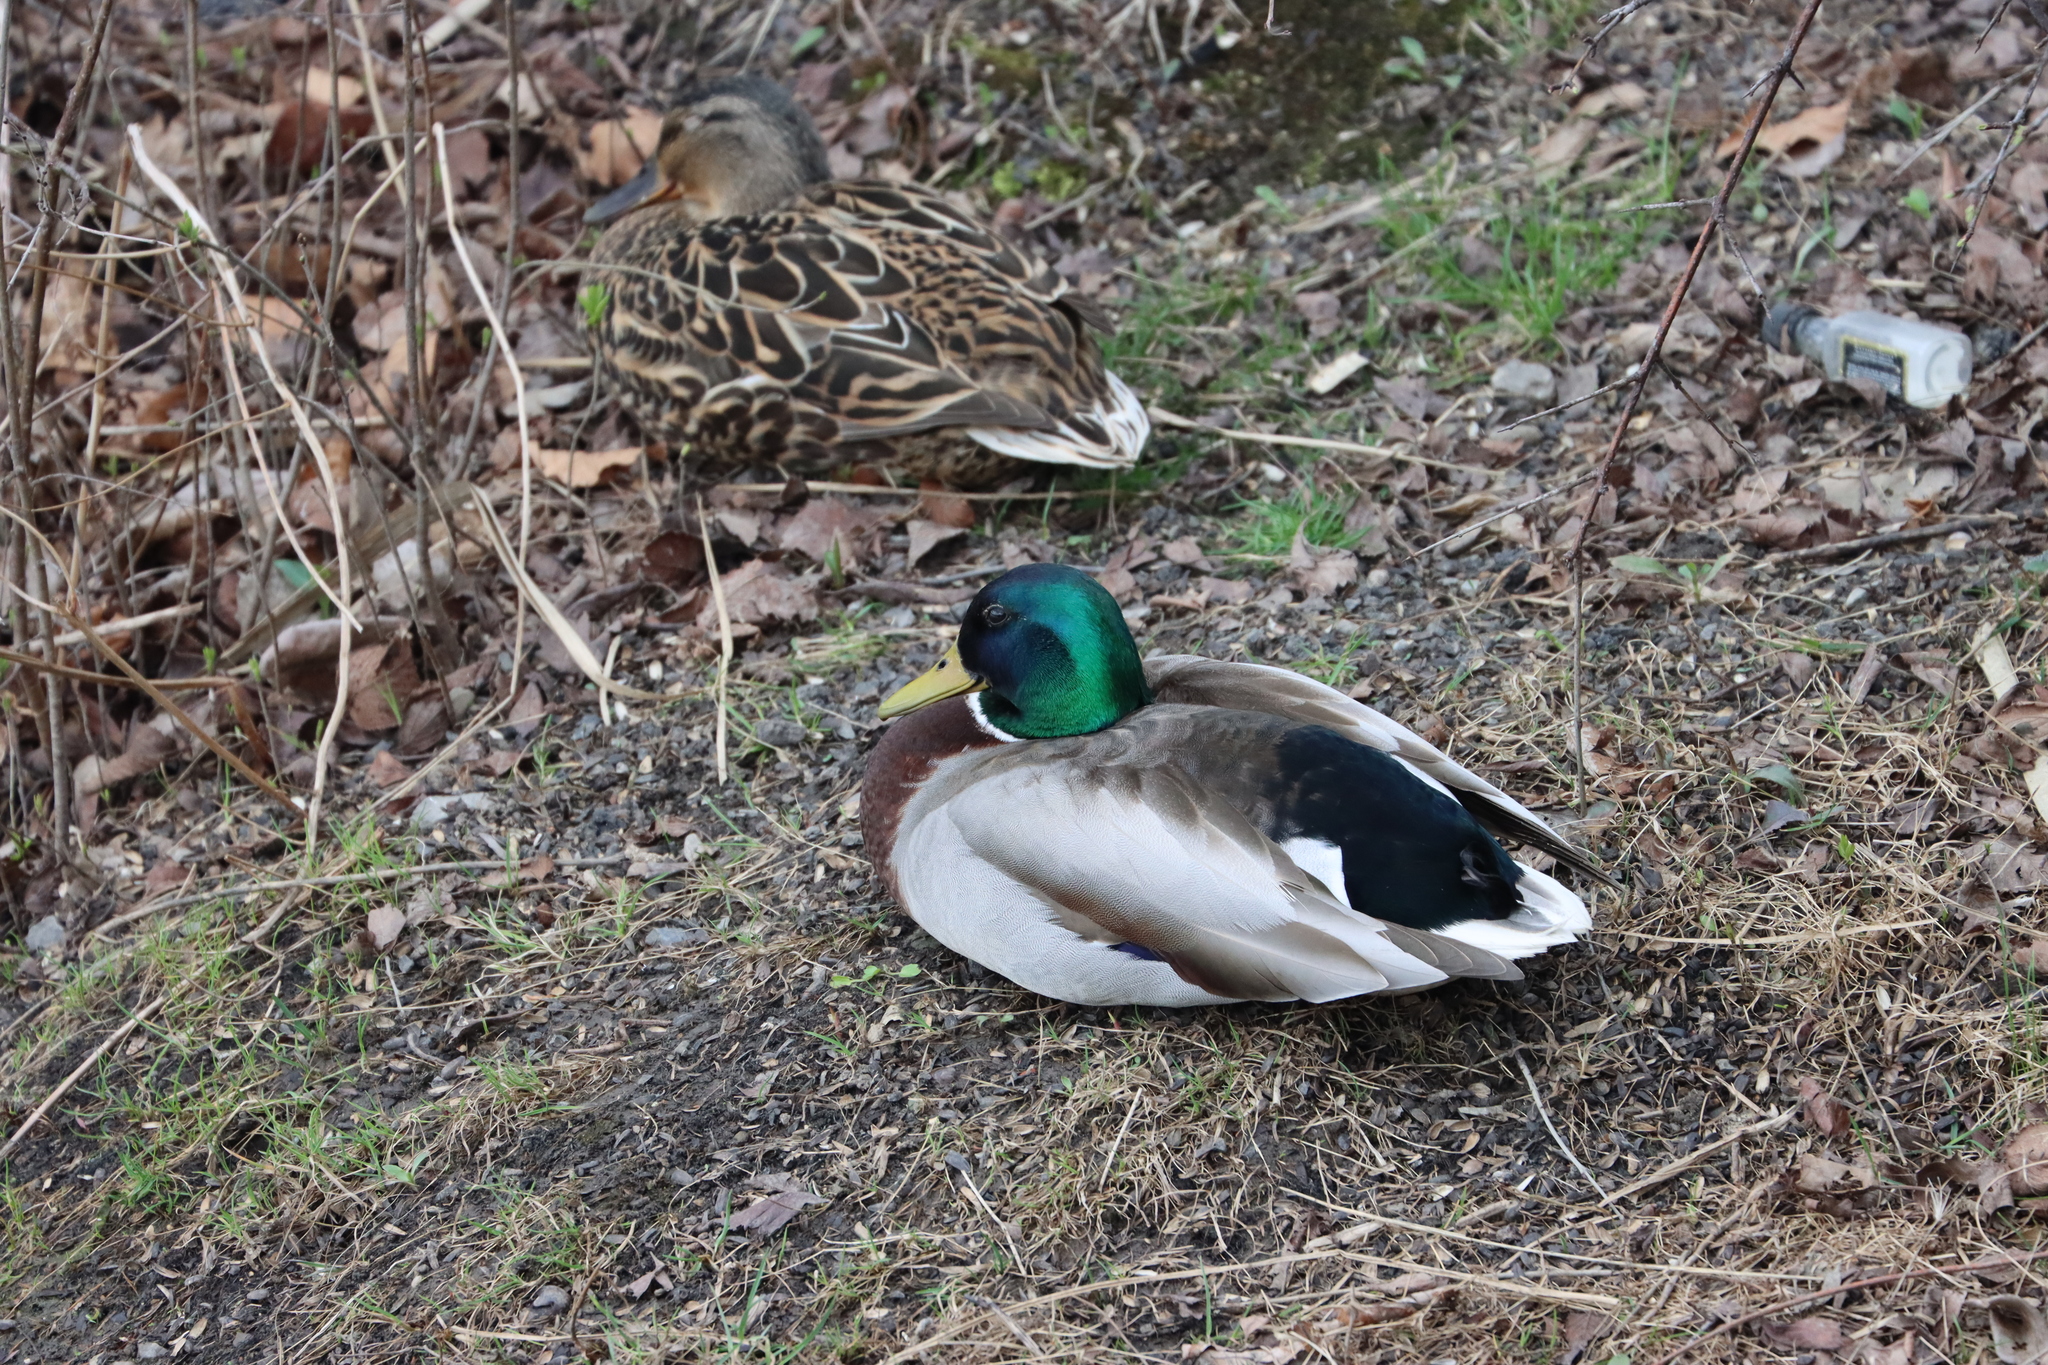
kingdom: Animalia
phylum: Chordata
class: Aves
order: Anseriformes
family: Anatidae
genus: Anas
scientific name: Anas platyrhynchos
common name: Mallard
